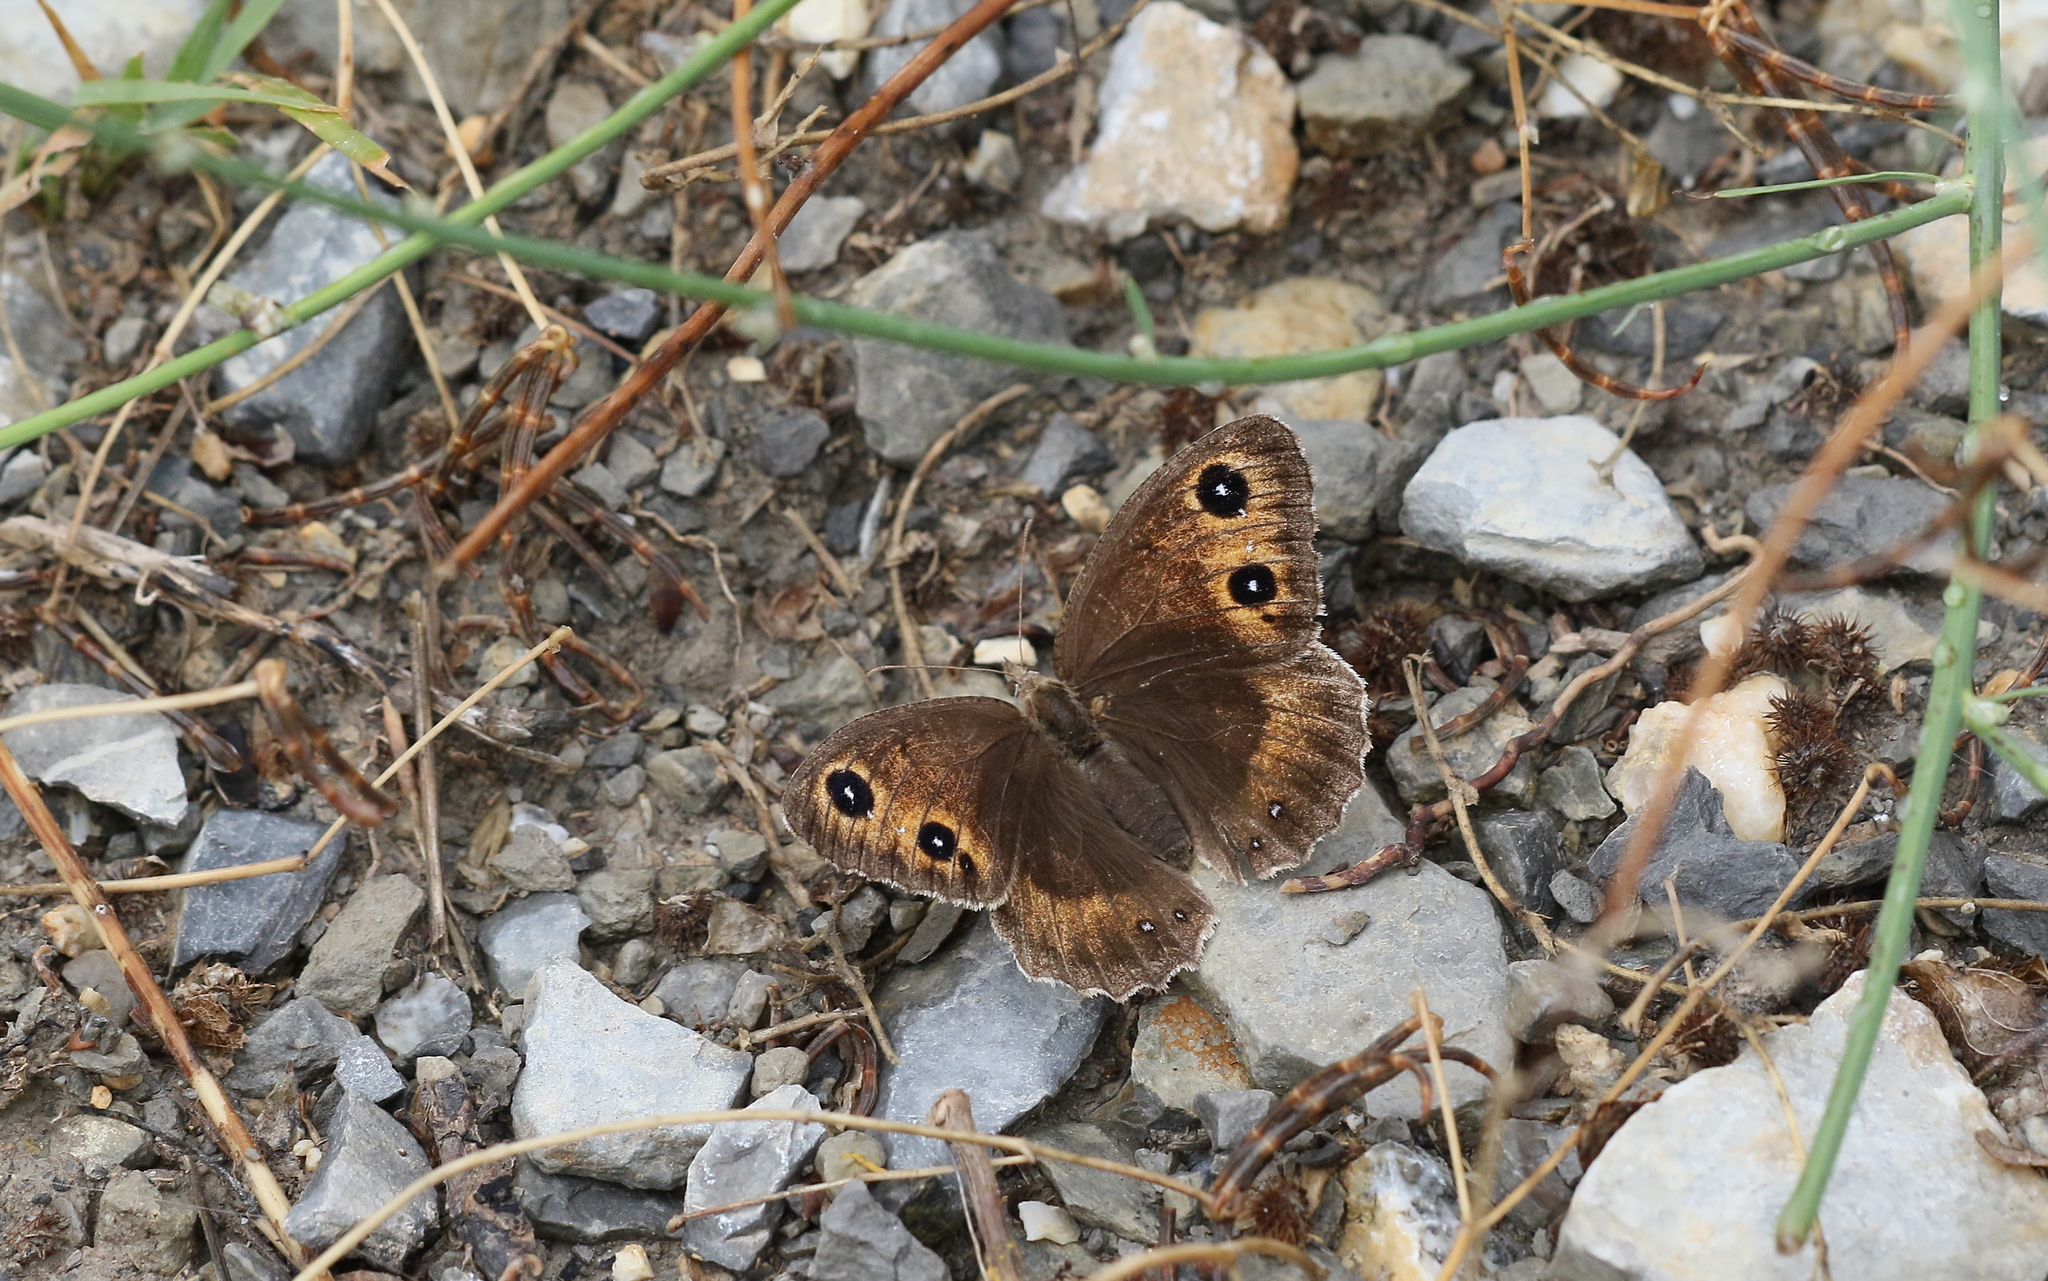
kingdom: Animalia
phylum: Arthropoda
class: Insecta
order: Lepidoptera
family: Nymphalidae
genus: Satyrus
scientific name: Satyrus ferula
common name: Great sooty satyr
